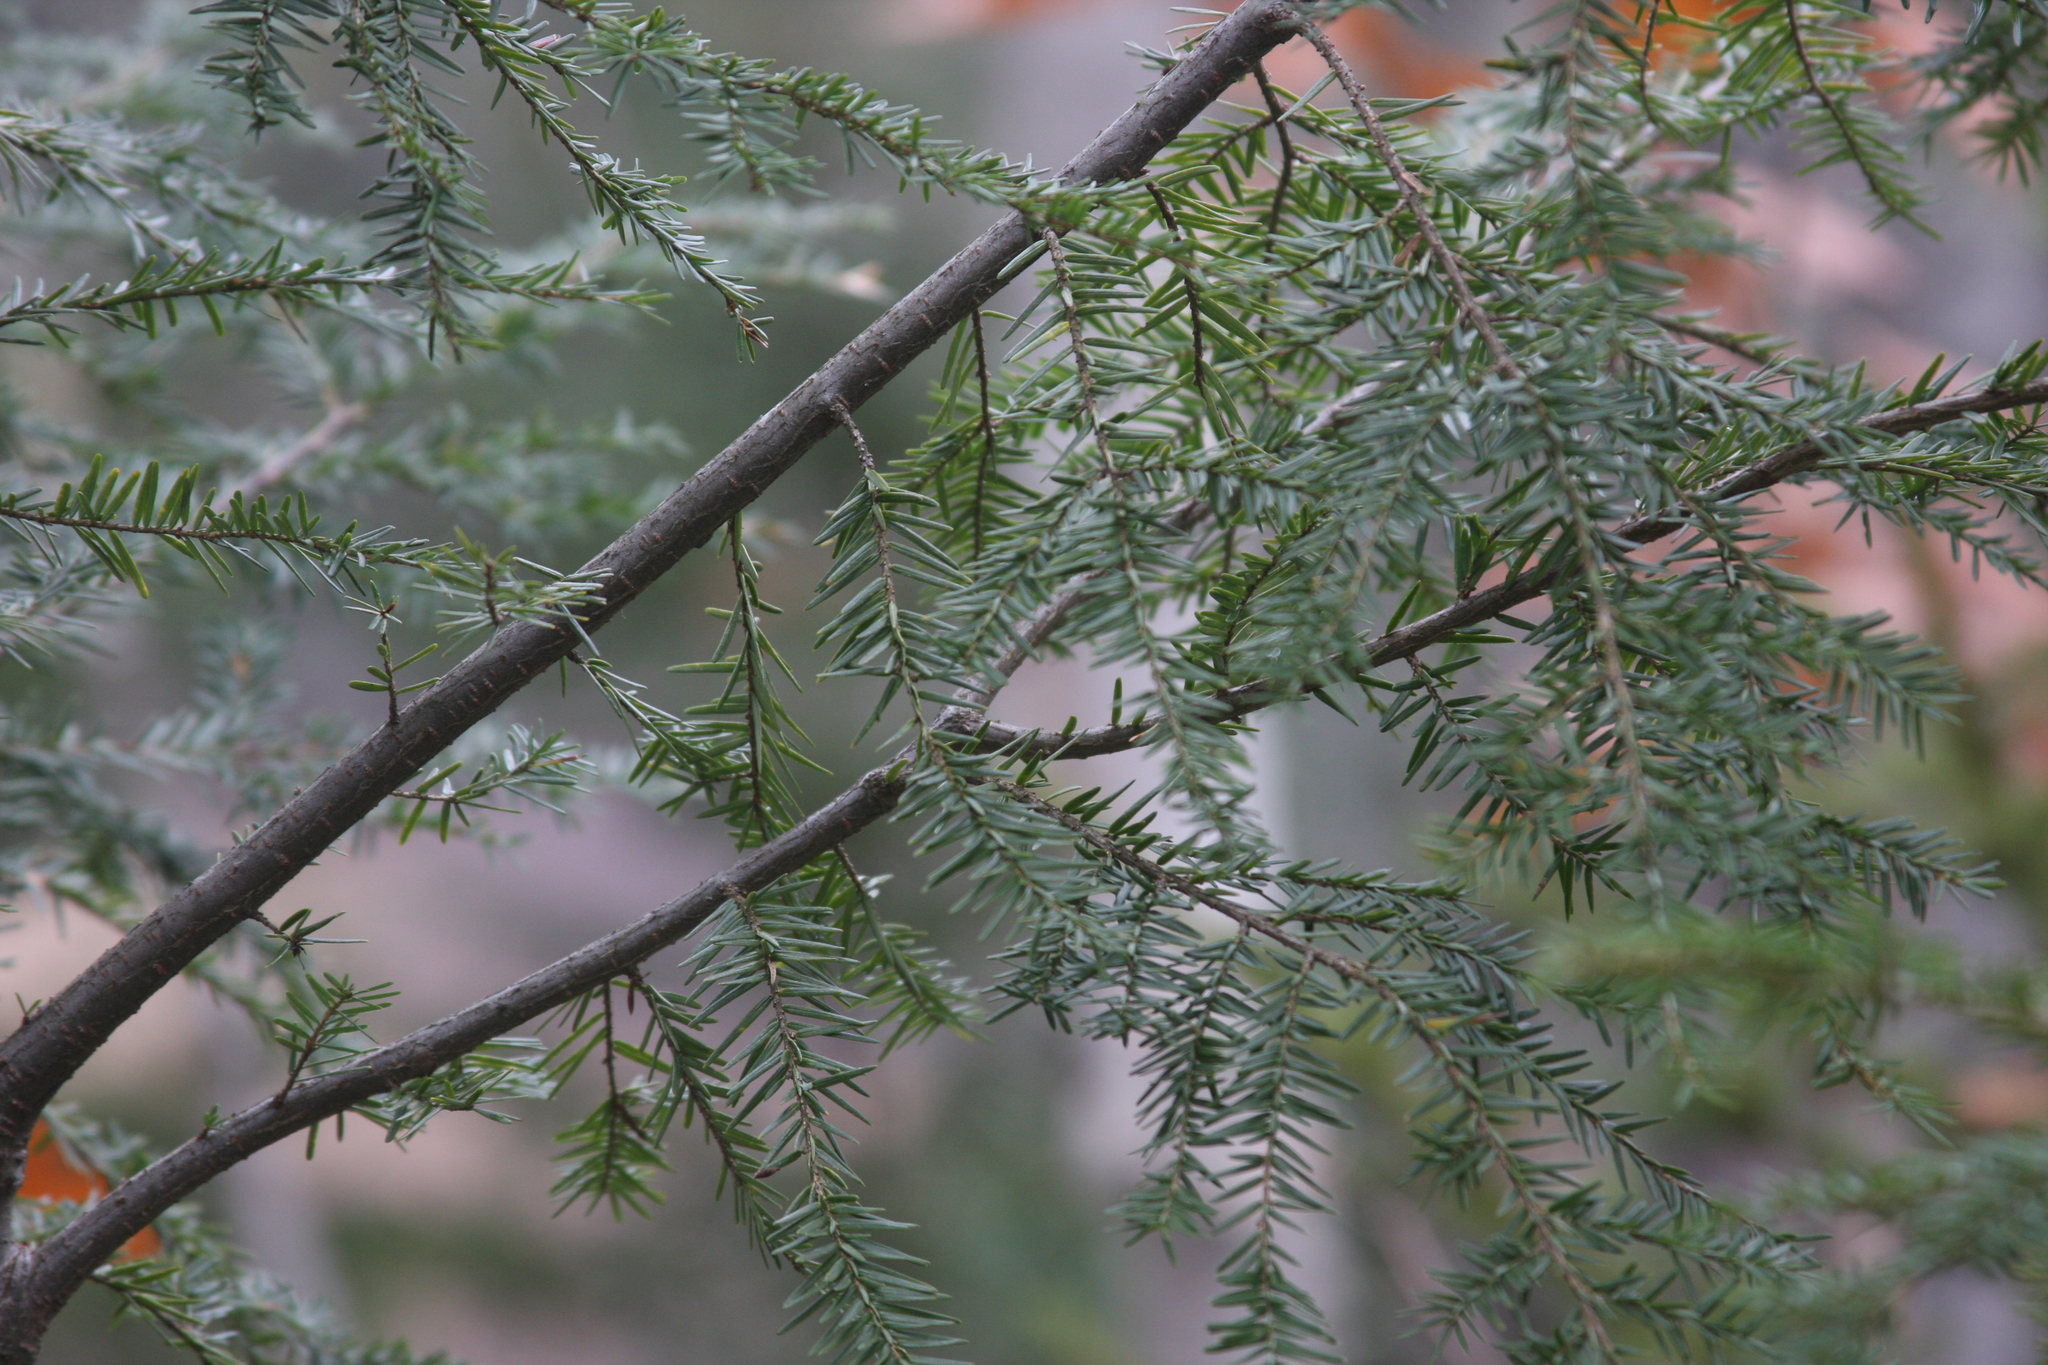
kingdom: Plantae
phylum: Tracheophyta
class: Pinopsida
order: Pinales
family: Pinaceae
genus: Tsuga
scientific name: Tsuga canadensis
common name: Eastern hemlock
